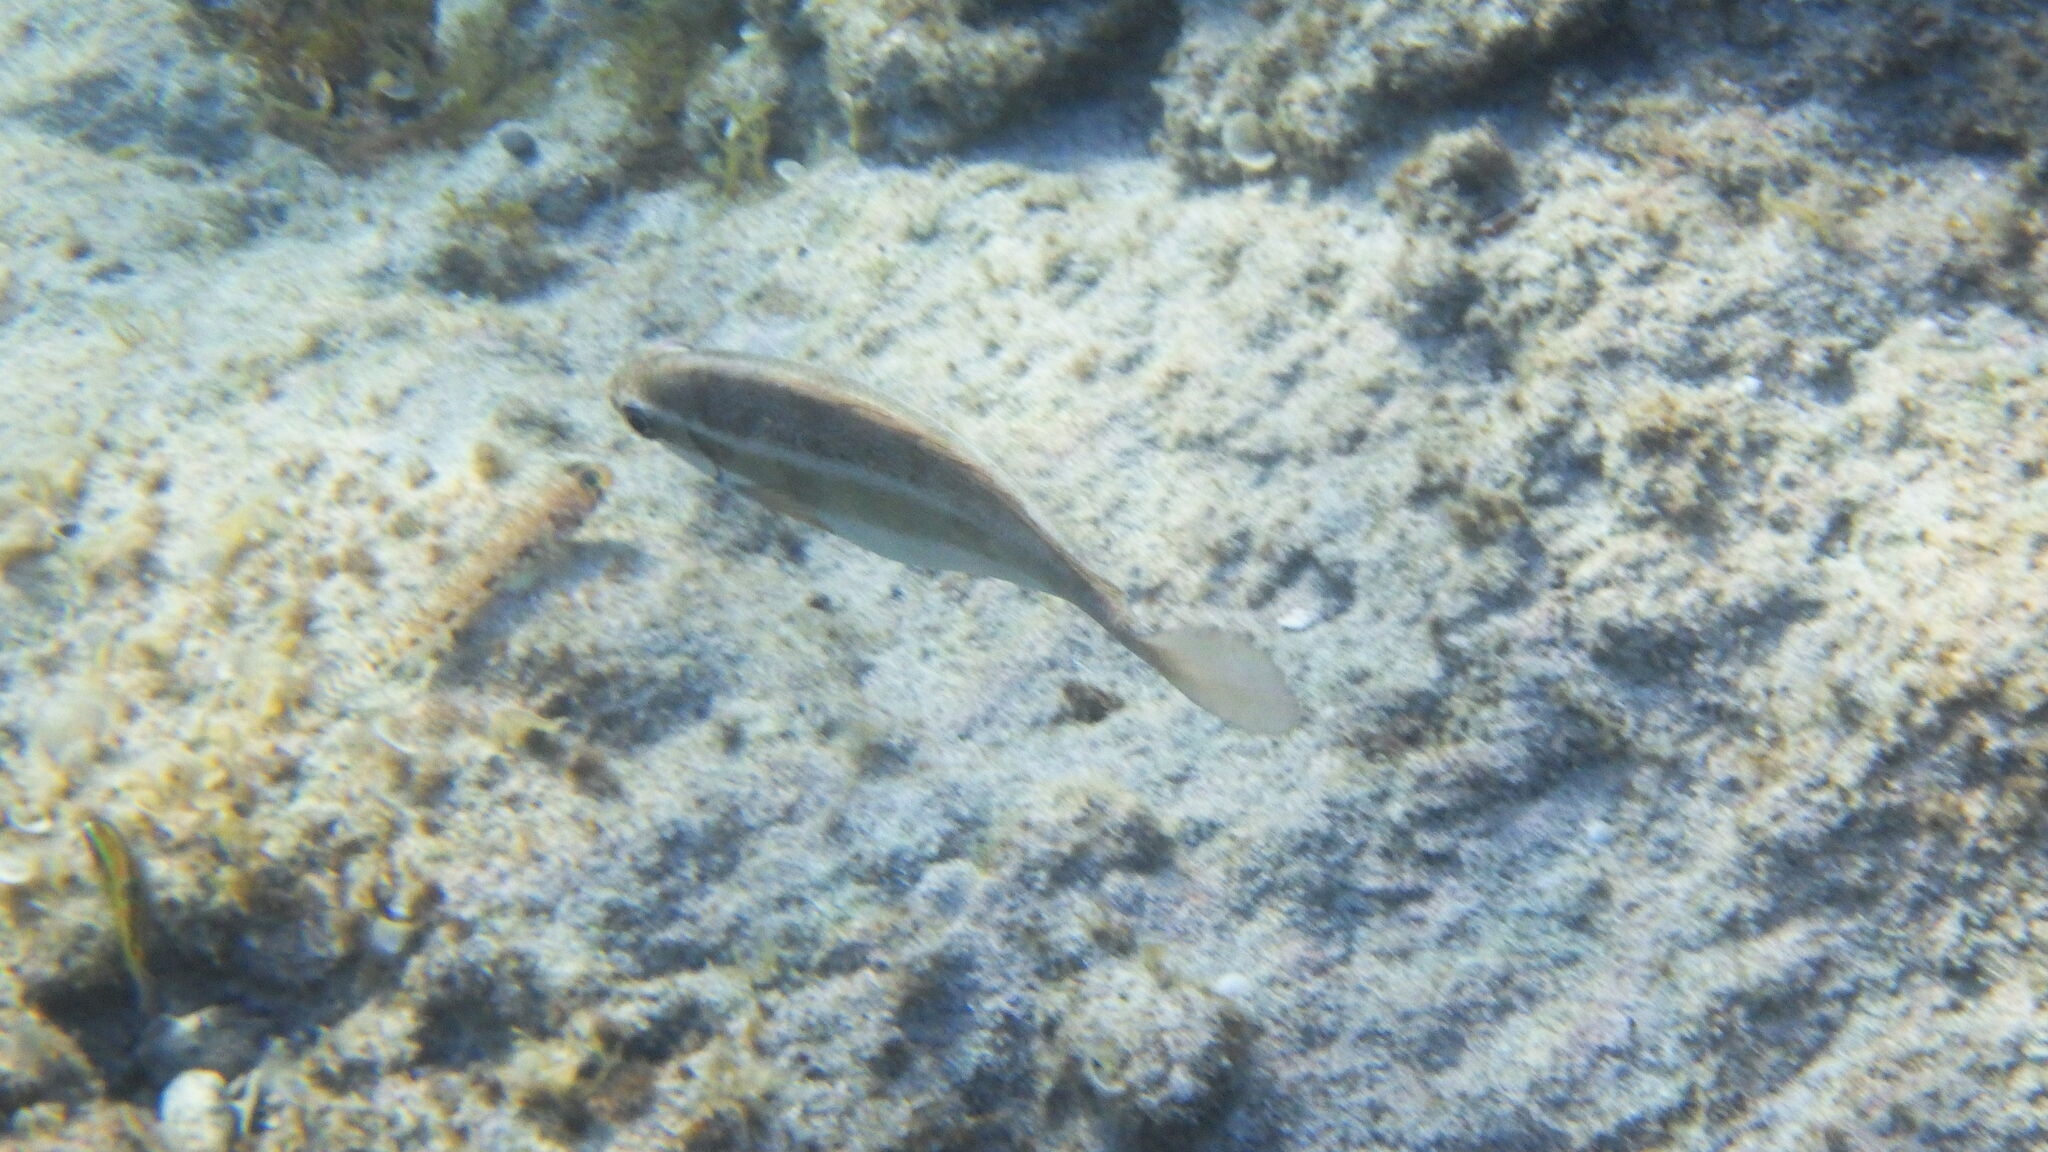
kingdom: Animalia
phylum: Chordata
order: Perciformes
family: Siganidae
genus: Siganus
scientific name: Siganus luridus
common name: Dusky spinefoot
